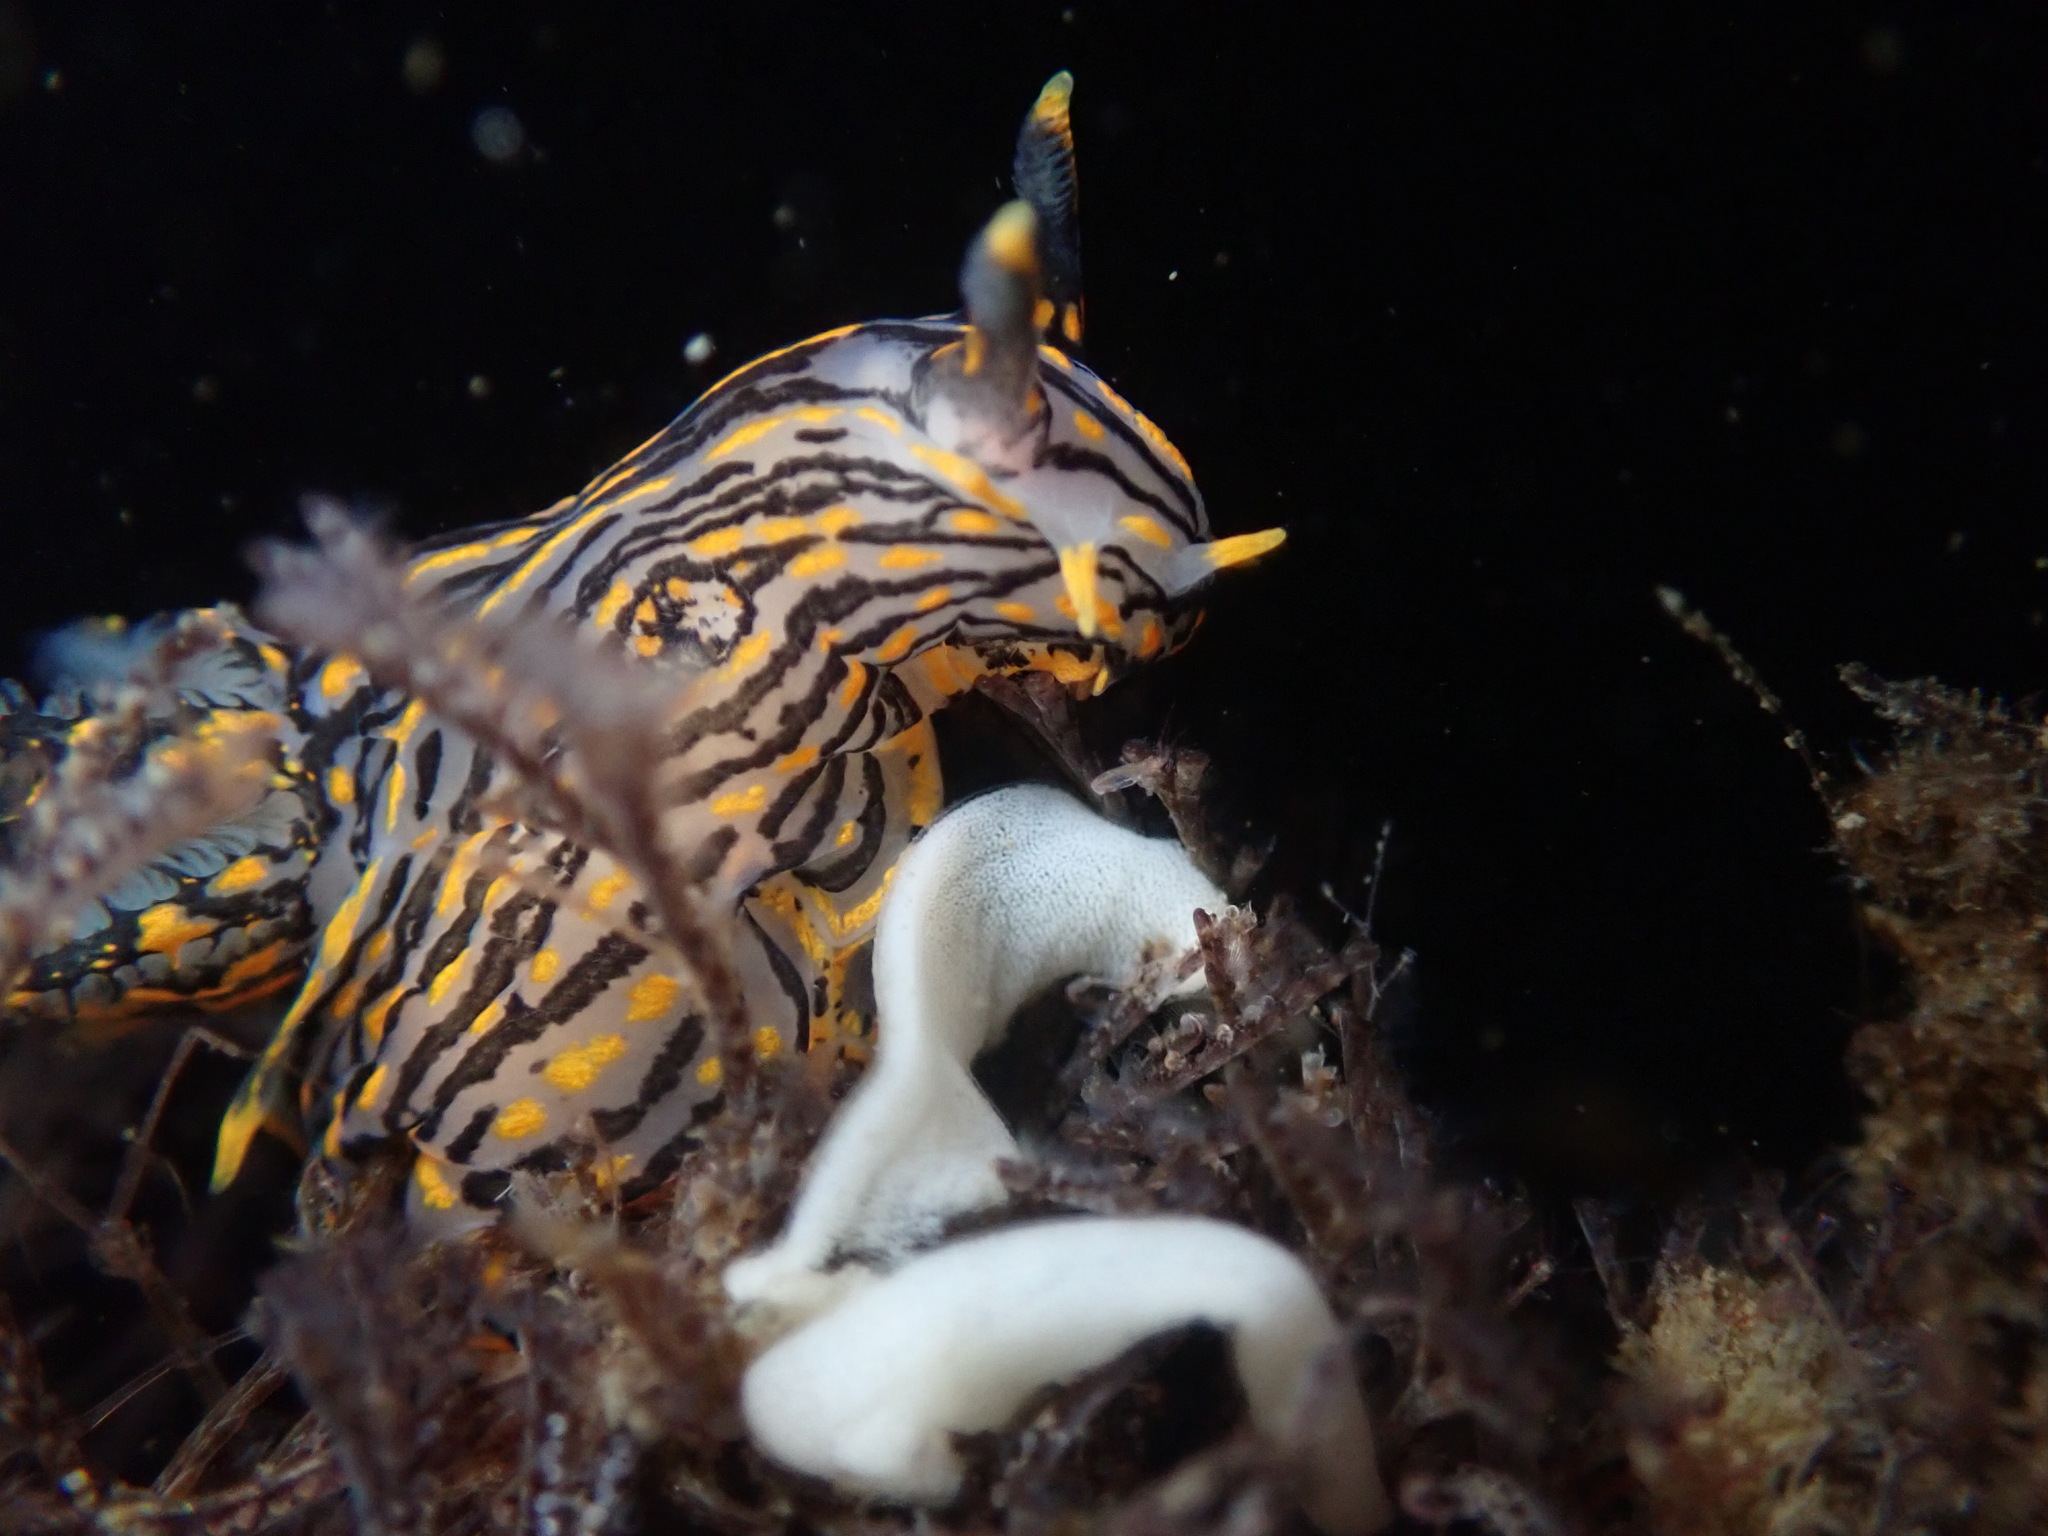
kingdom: Animalia
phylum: Mollusca
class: Gastropoda
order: Nudibranchia
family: Polyceridae
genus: Polycera
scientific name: Polycera atra
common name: Orange-spike polycera
